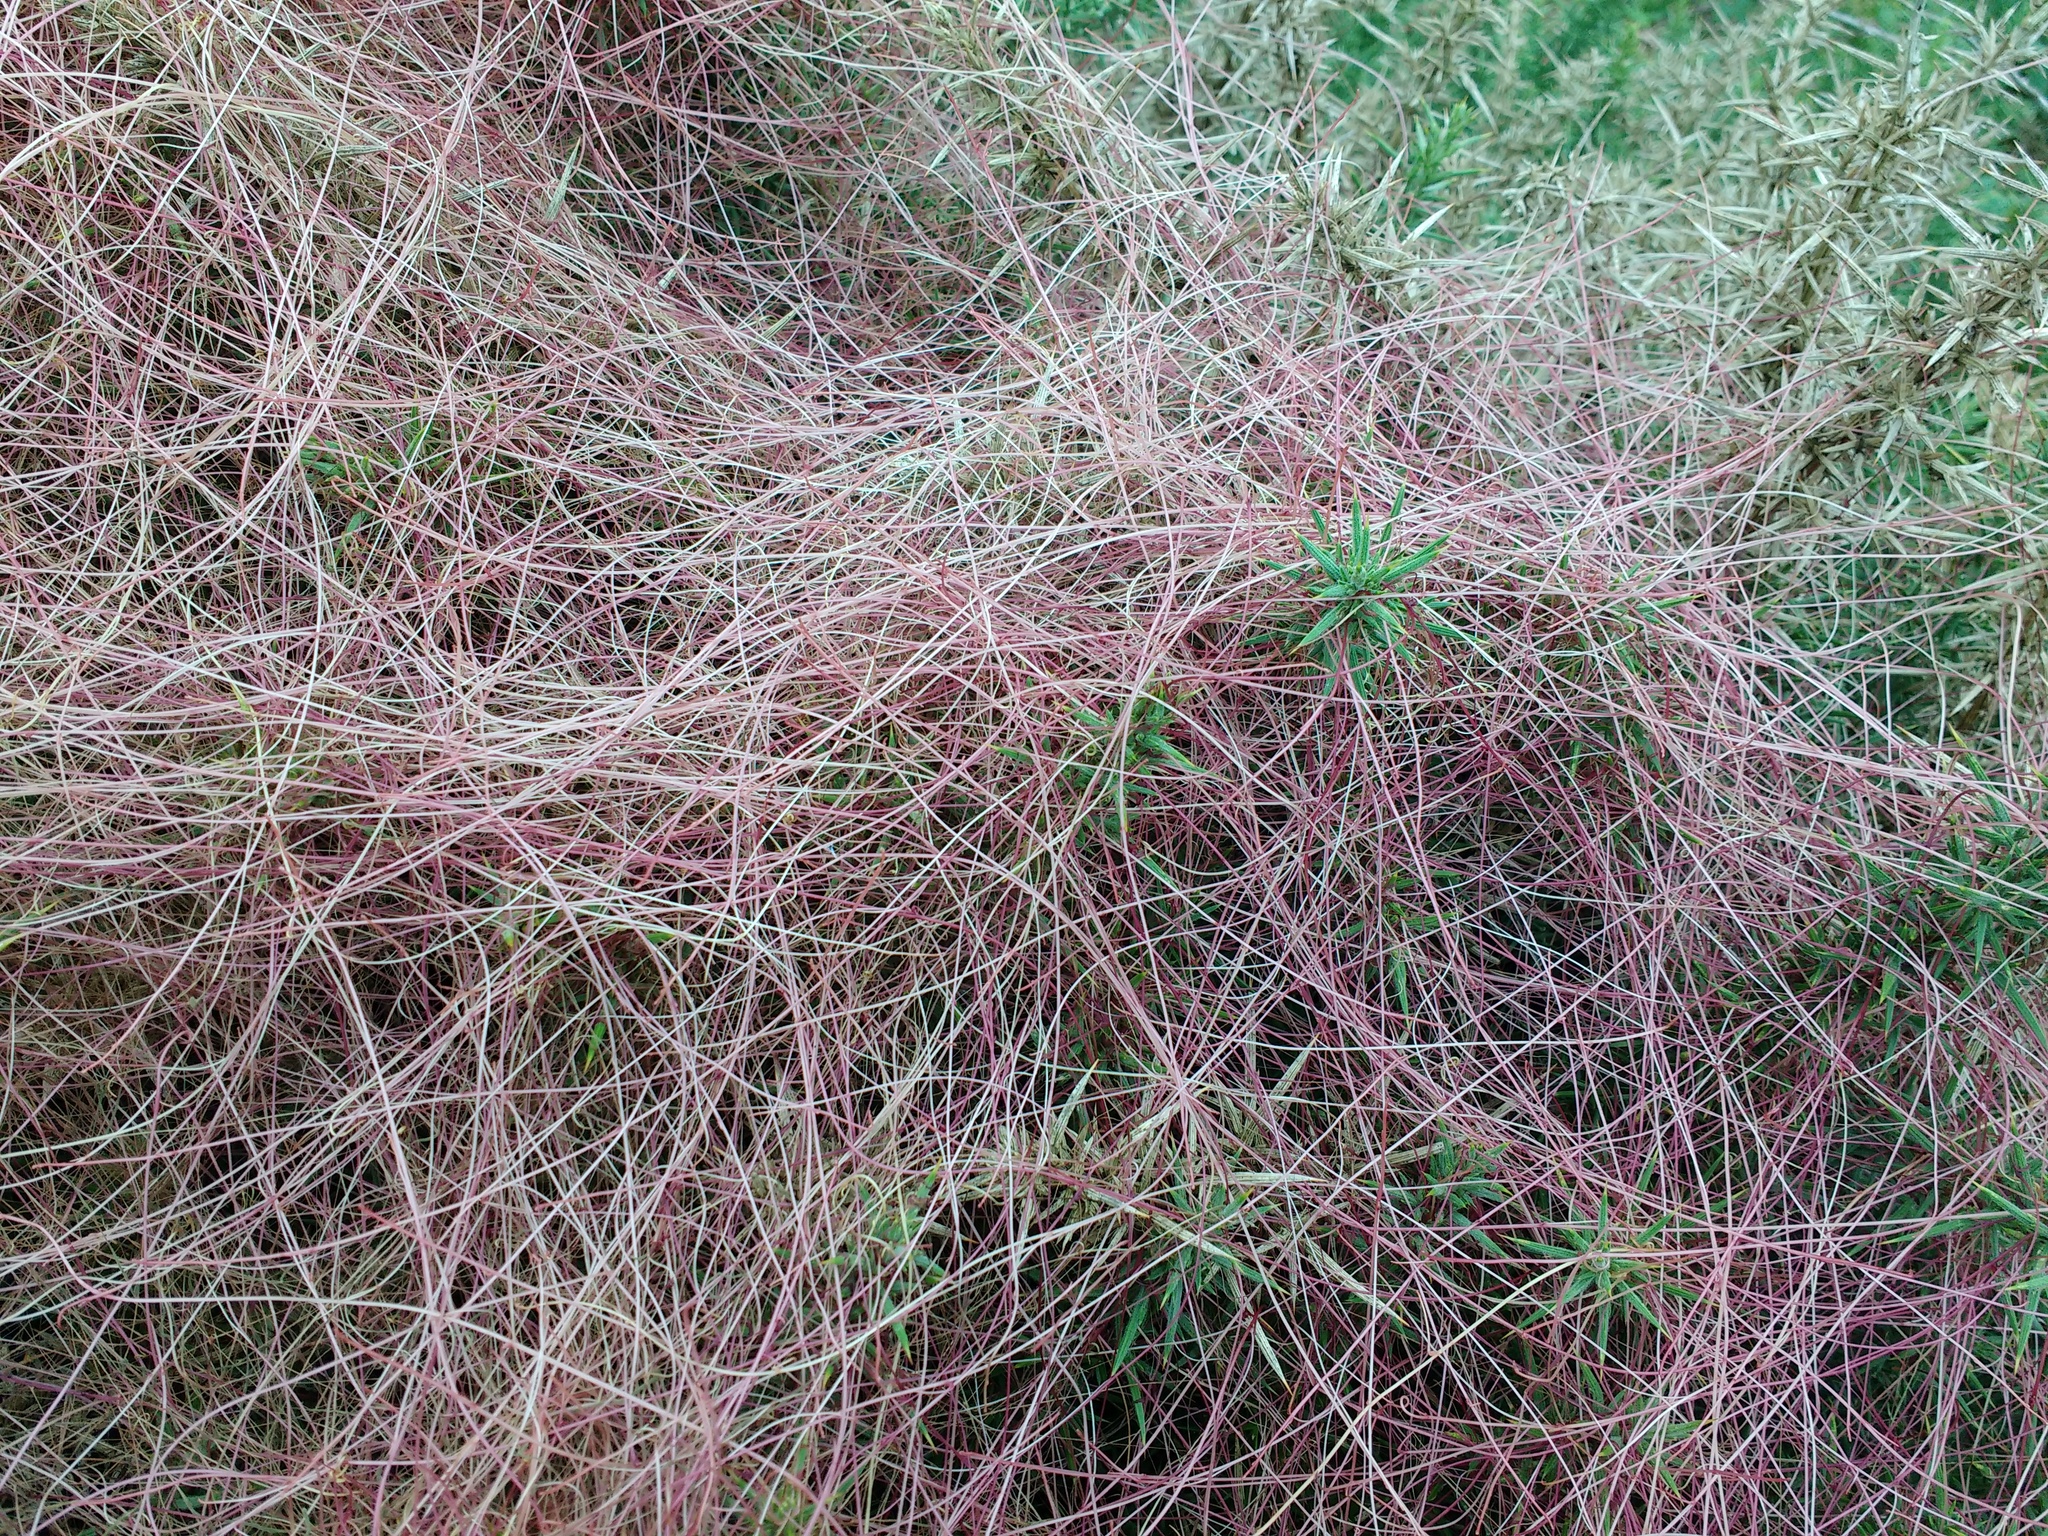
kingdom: Plantae
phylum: Tracheophyta
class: Magnoliopsida
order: Solanales
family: Convolvulaceae
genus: Cuscuta
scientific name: Cuscuta epithymum
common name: Clover dodder
